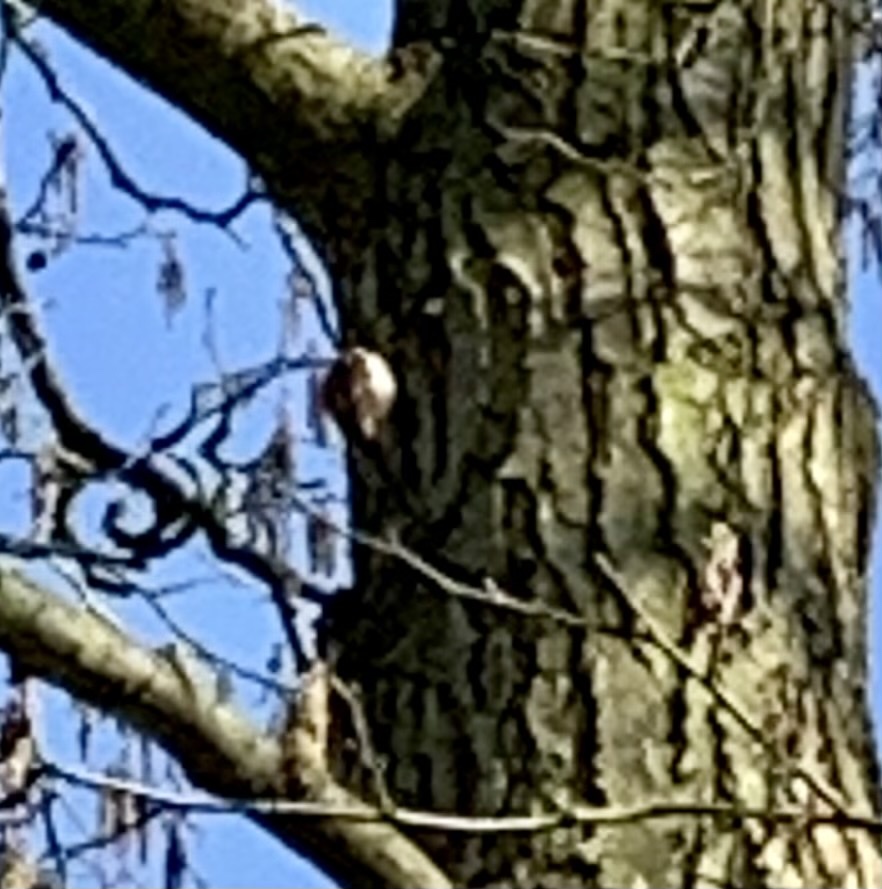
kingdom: Animalia
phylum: Chordata
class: Aves
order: Passeriformes
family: Certhiidae
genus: Certhia
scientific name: Certhia familiaris
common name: Eurasian treecreeper
